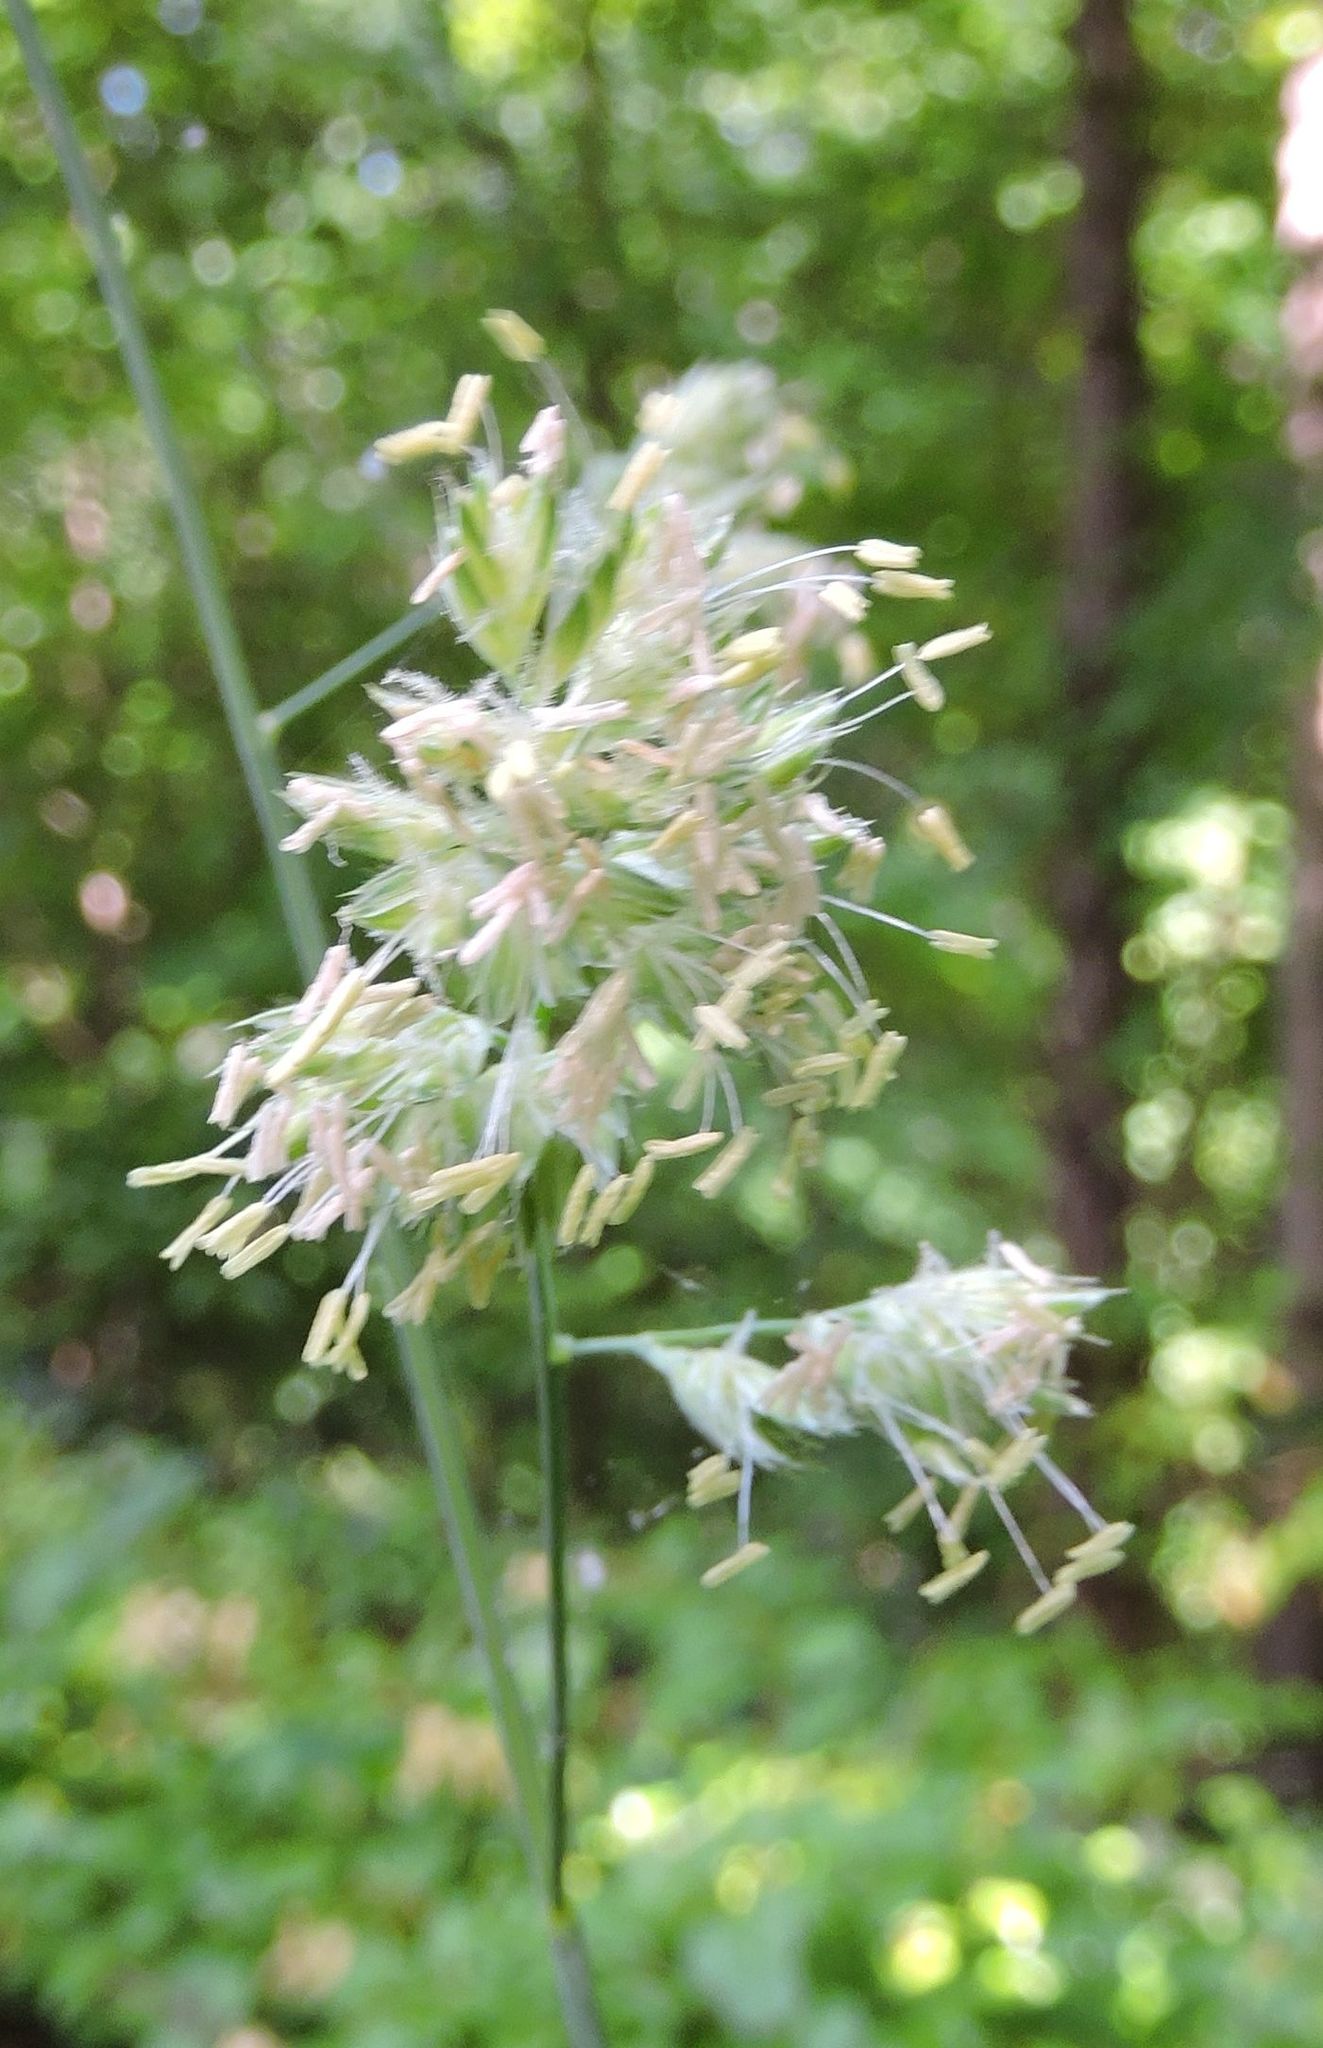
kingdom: Plantae
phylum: Tracheophyta
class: Liliopsida
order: Poales
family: Poaceae
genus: Dactylis
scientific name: Dactylis glomerata
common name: Orchardgrass
